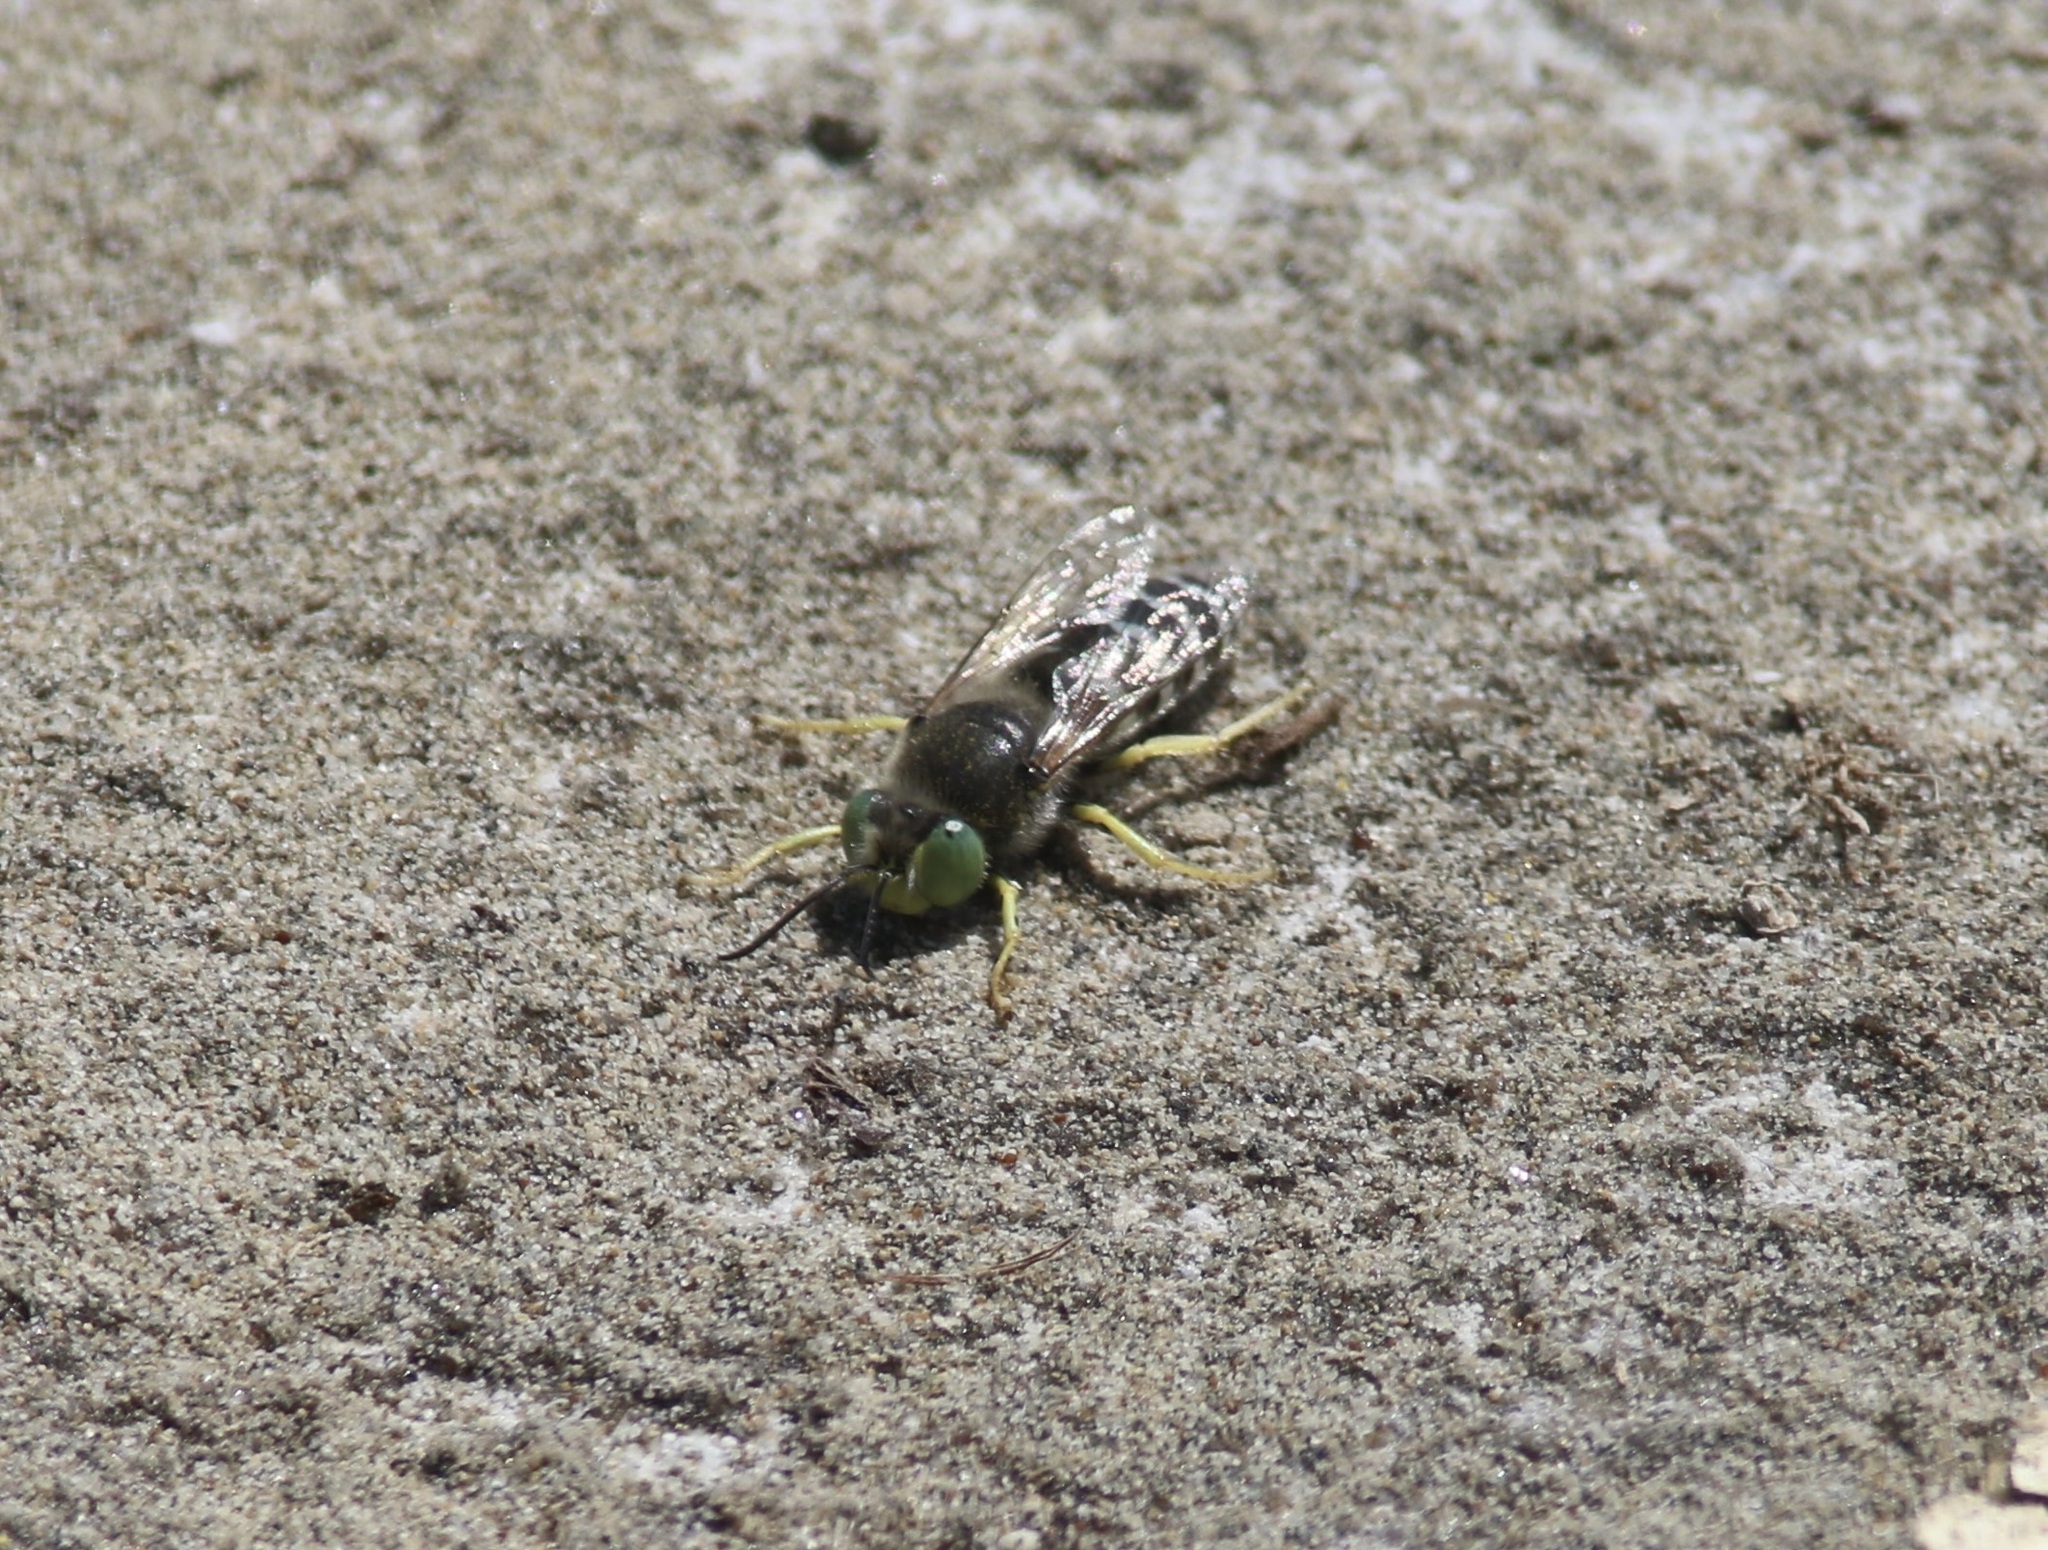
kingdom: Animalia
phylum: Arthropoda
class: Insecta
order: Hymenoptera
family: Crabronidae
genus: Bembix
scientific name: Bembix americana
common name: American sand wasp
